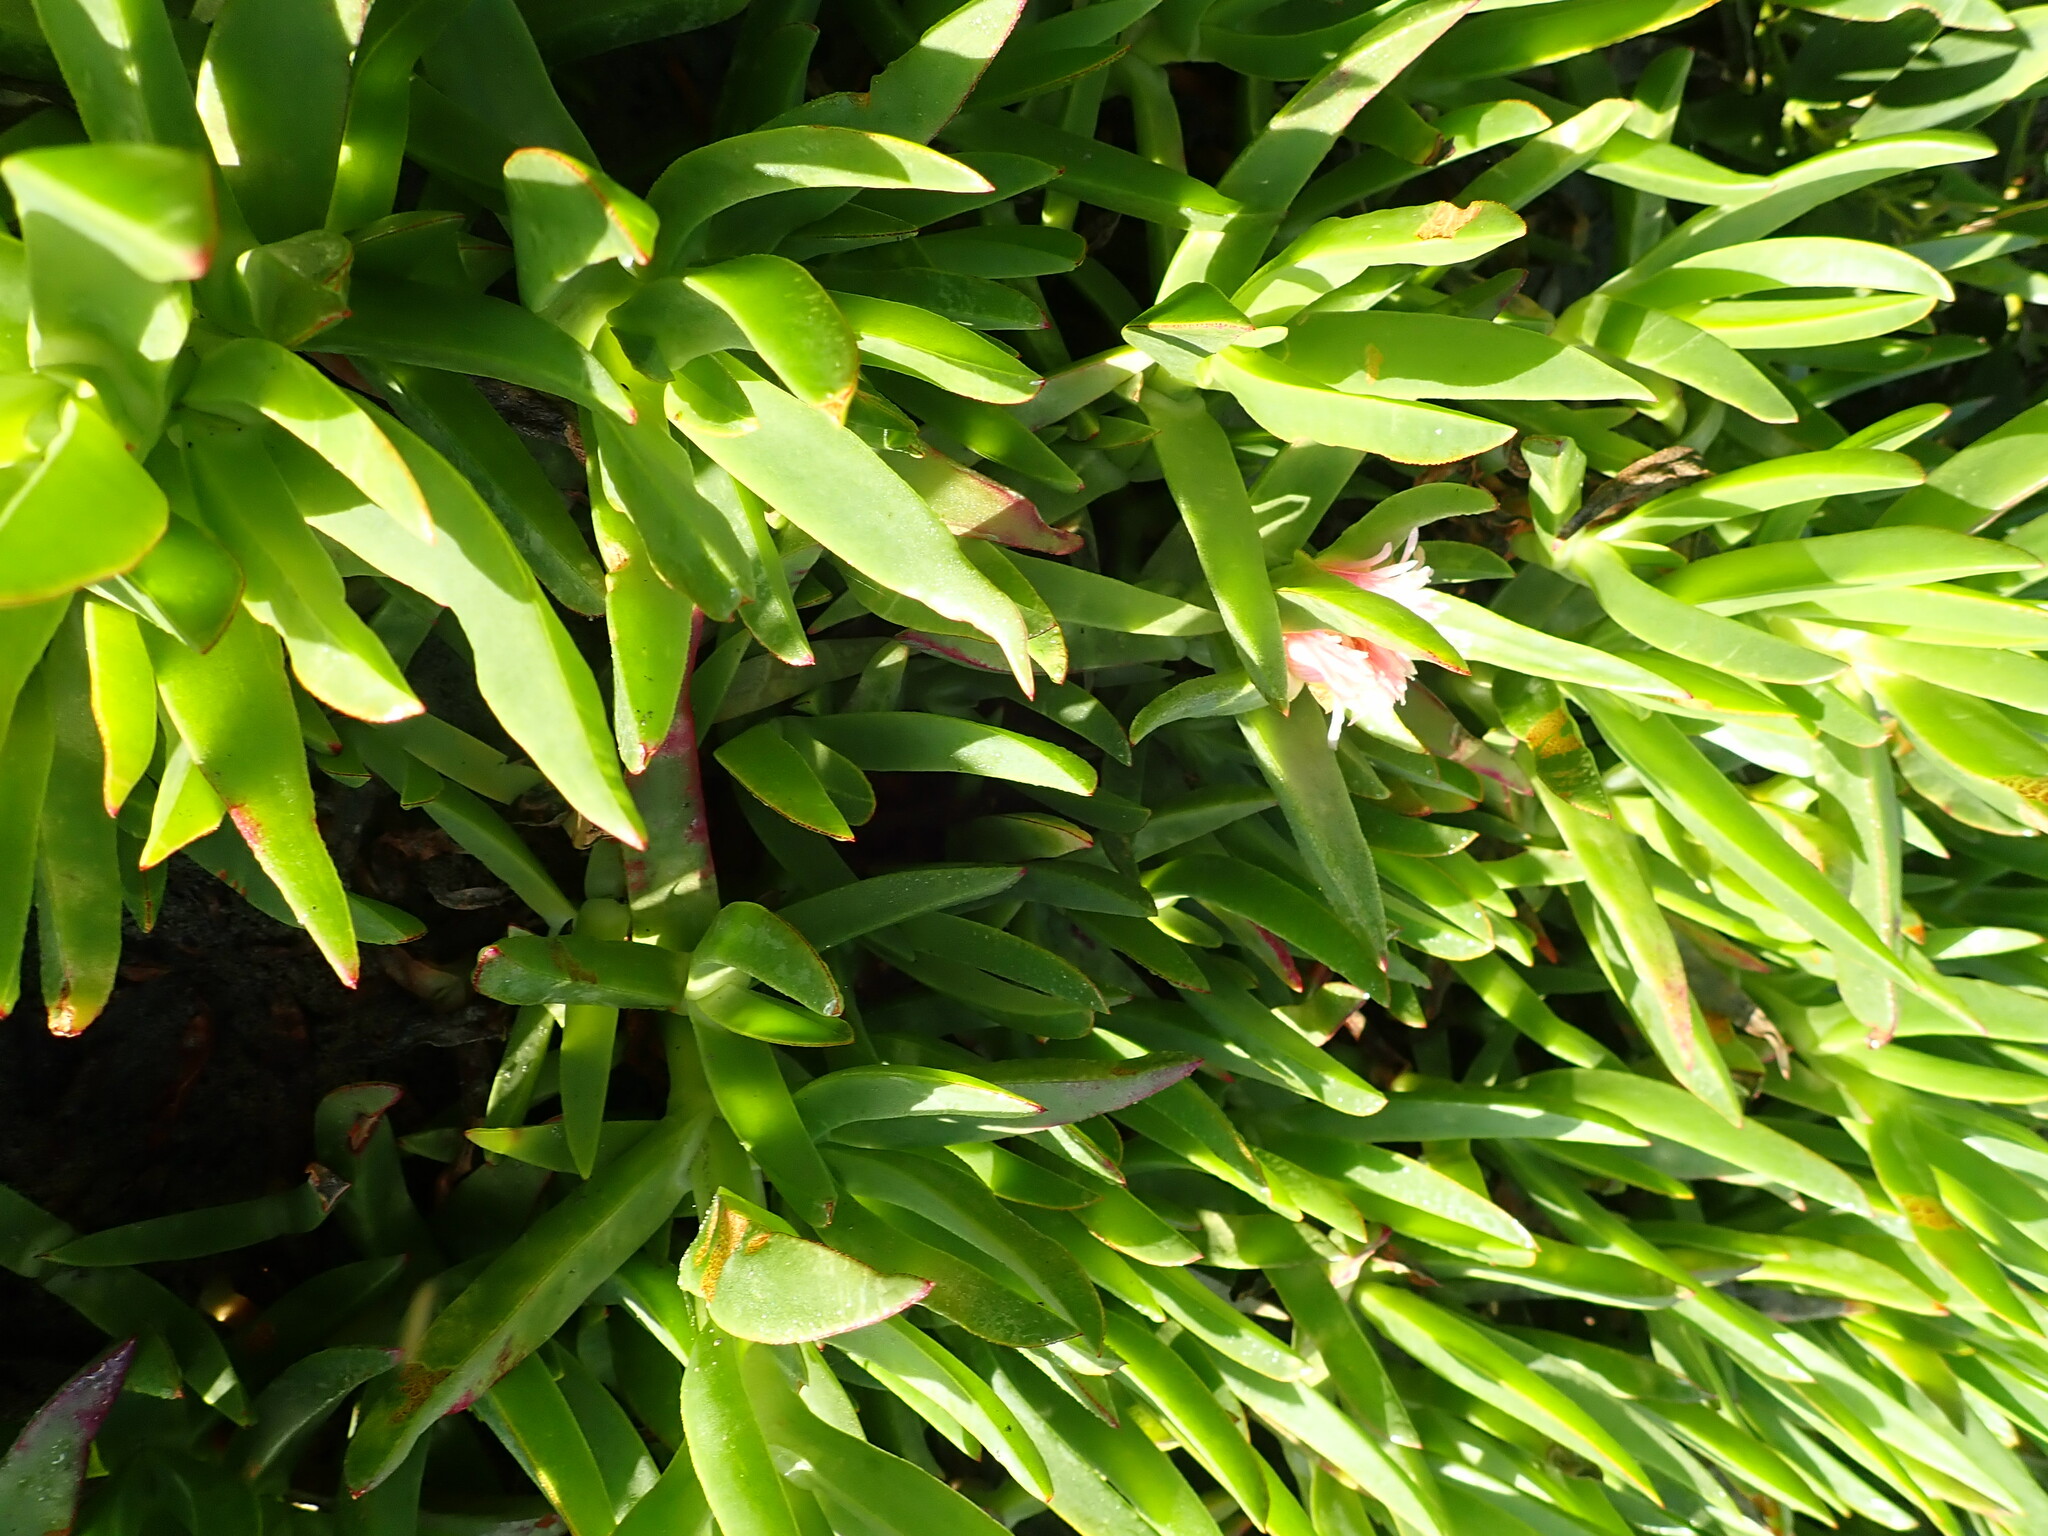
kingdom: Plantae
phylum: Tracheophyta
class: Magnoliopsida
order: Caryophyllales
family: Aizoaceae
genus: Carpobrotus
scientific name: Carpobrotus edulis
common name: Hottentot-fig
